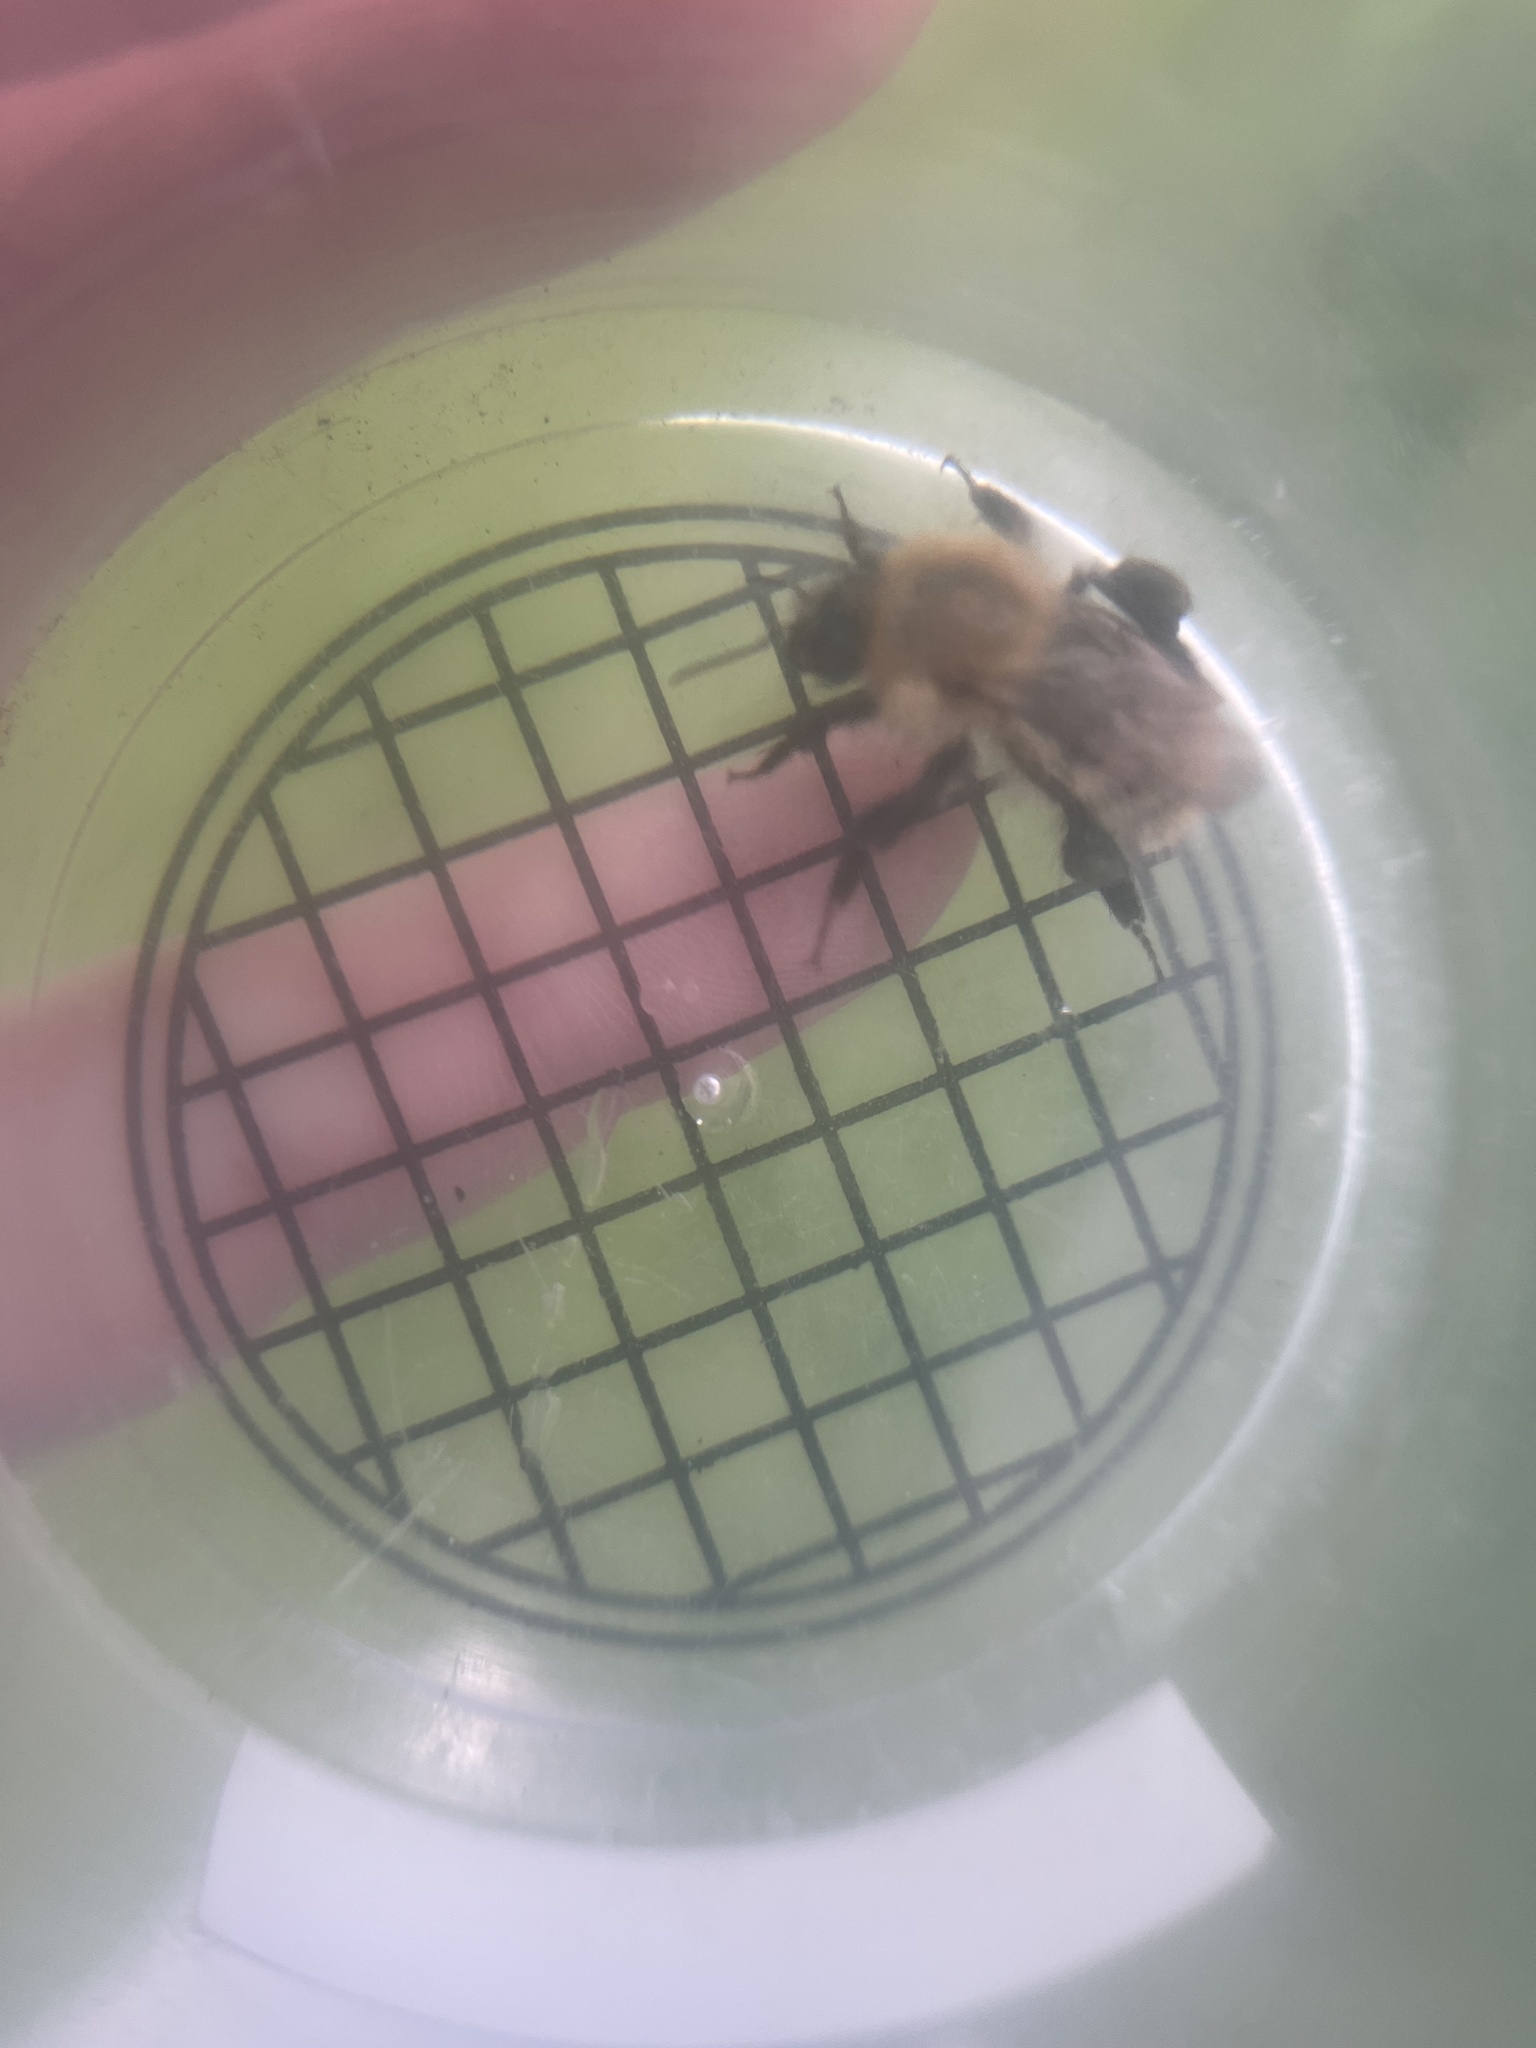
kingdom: Animalia
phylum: Arthropoda
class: Insecta
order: Hymenoptera
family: Apidae
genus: Bombus
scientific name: Bombus pascuorum
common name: Common carder bee
